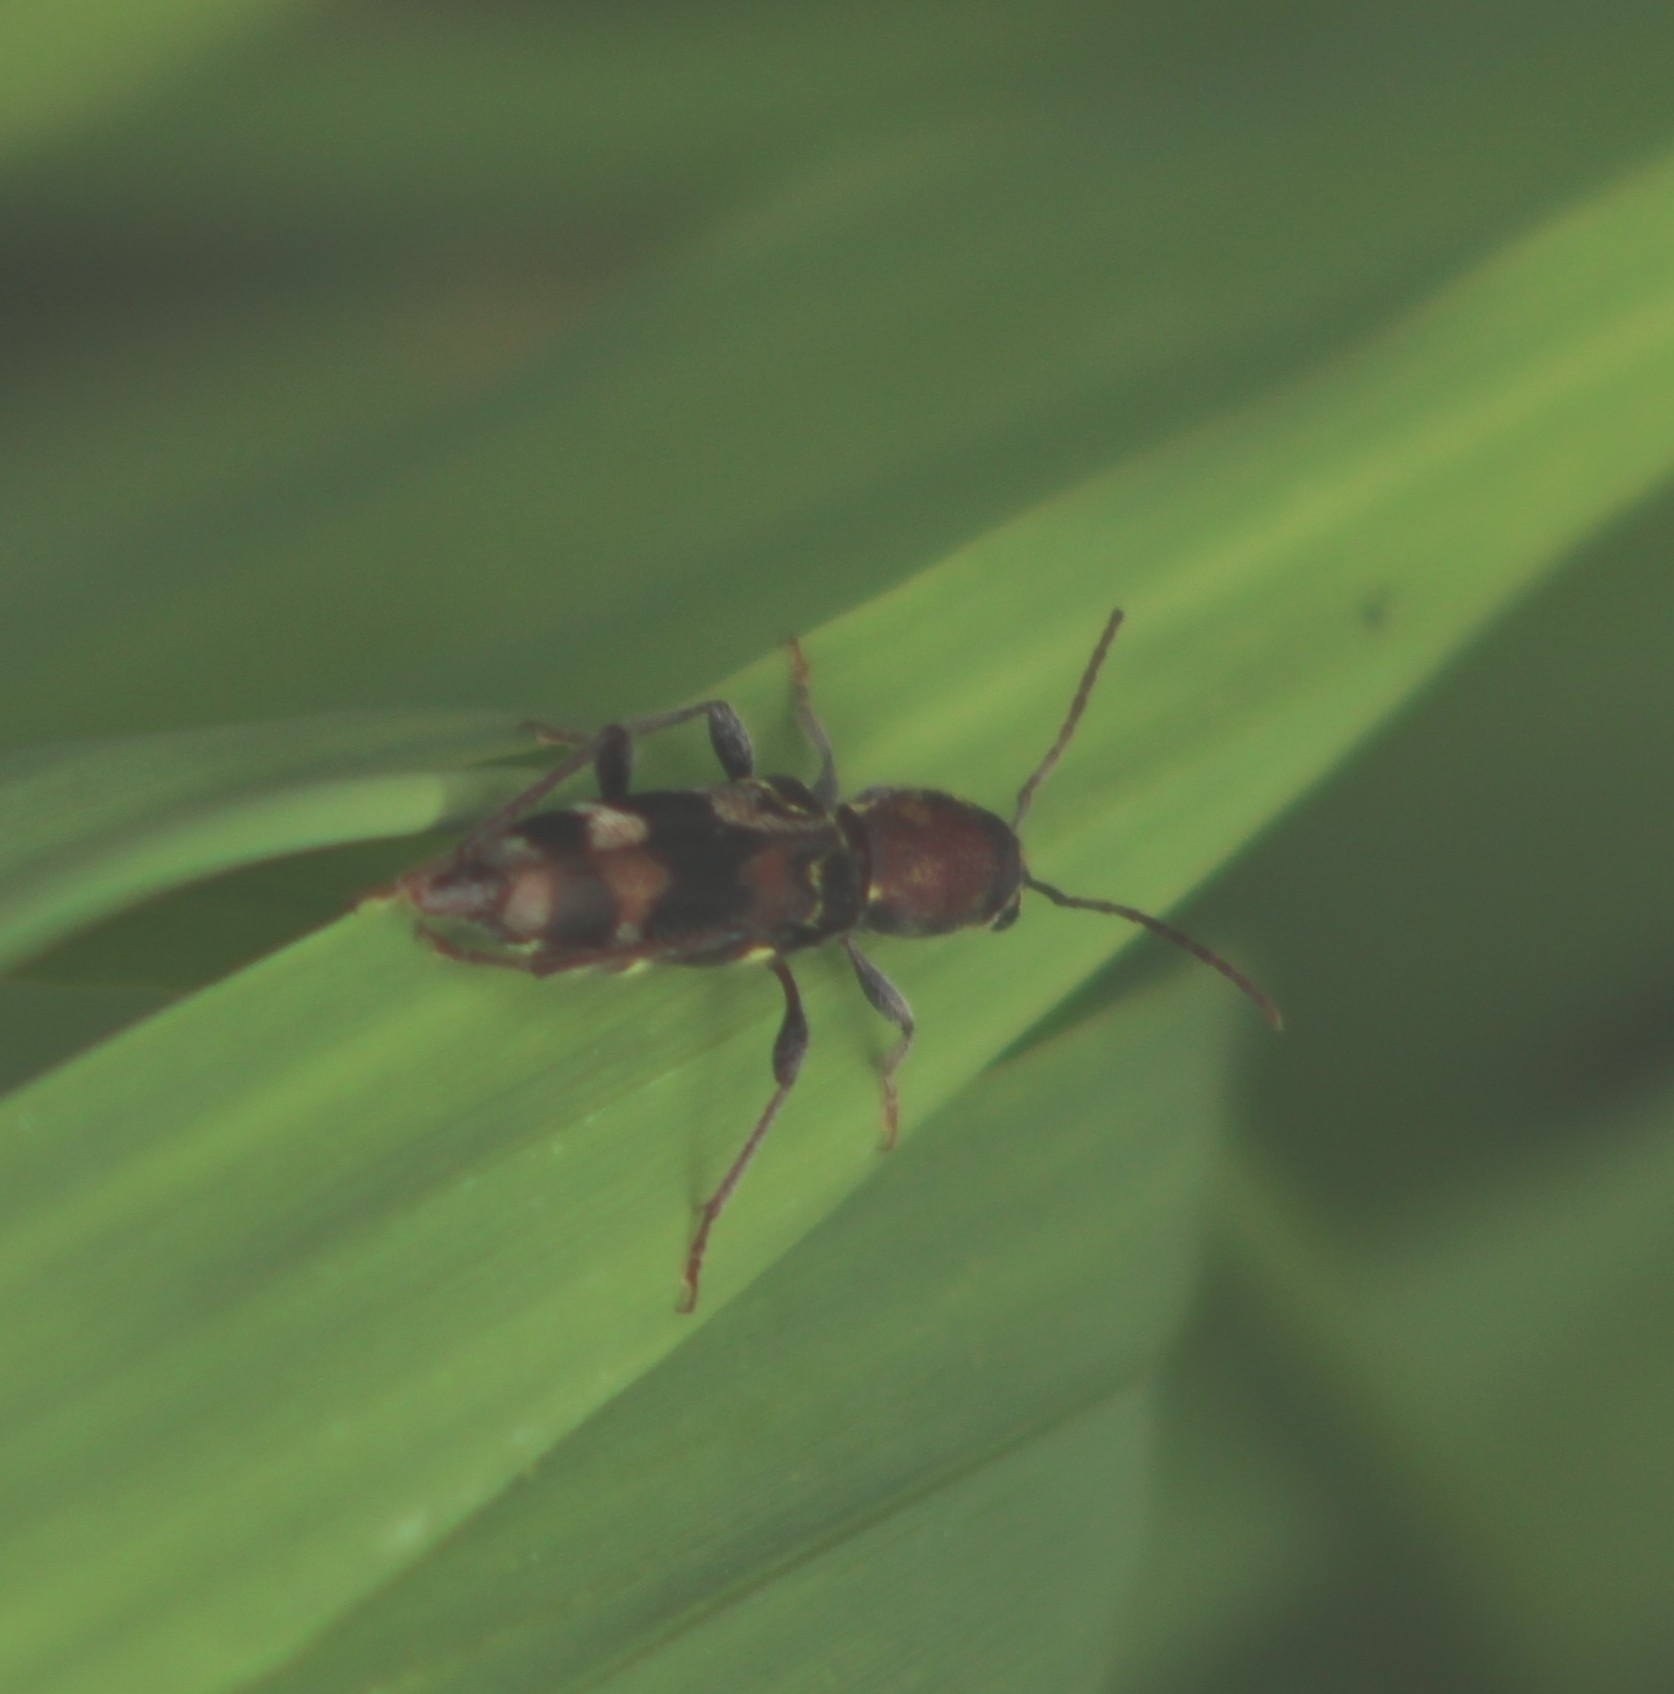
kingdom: Animalia
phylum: Arthropoda
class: Insecta
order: Coleoptera
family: Cerambycidae
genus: Xylotrechus
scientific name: Xylotrechus colonus
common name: Long-horned beetle
